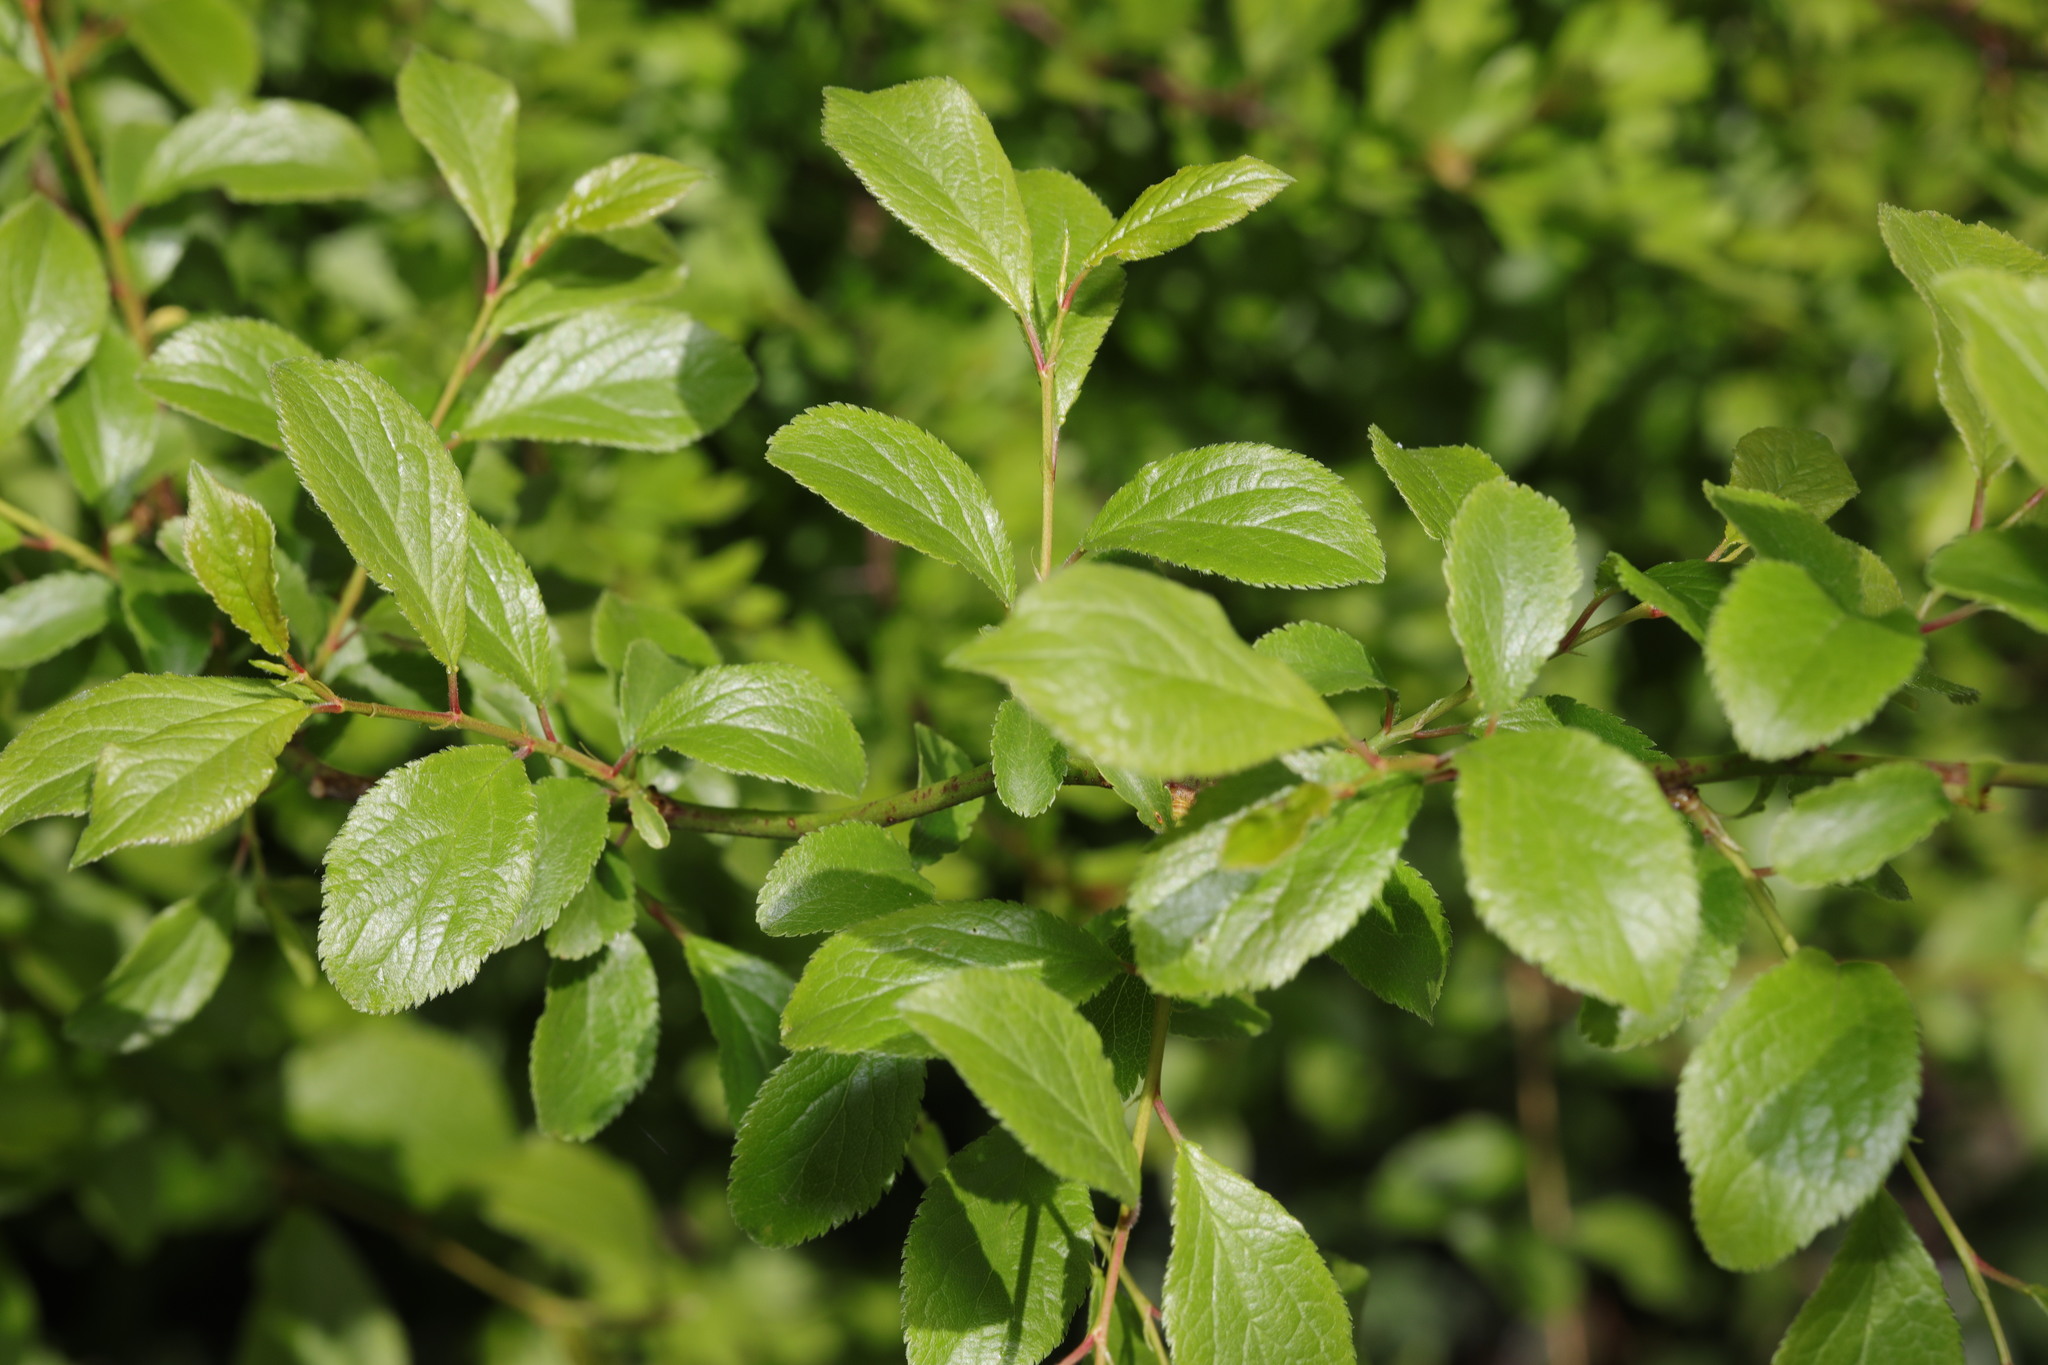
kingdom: Plantae
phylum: Tracheophyta
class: Magnoliopsida
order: Rosales
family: Rosaceae
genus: Prunus
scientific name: Prunus spinosa
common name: Blackthorn
